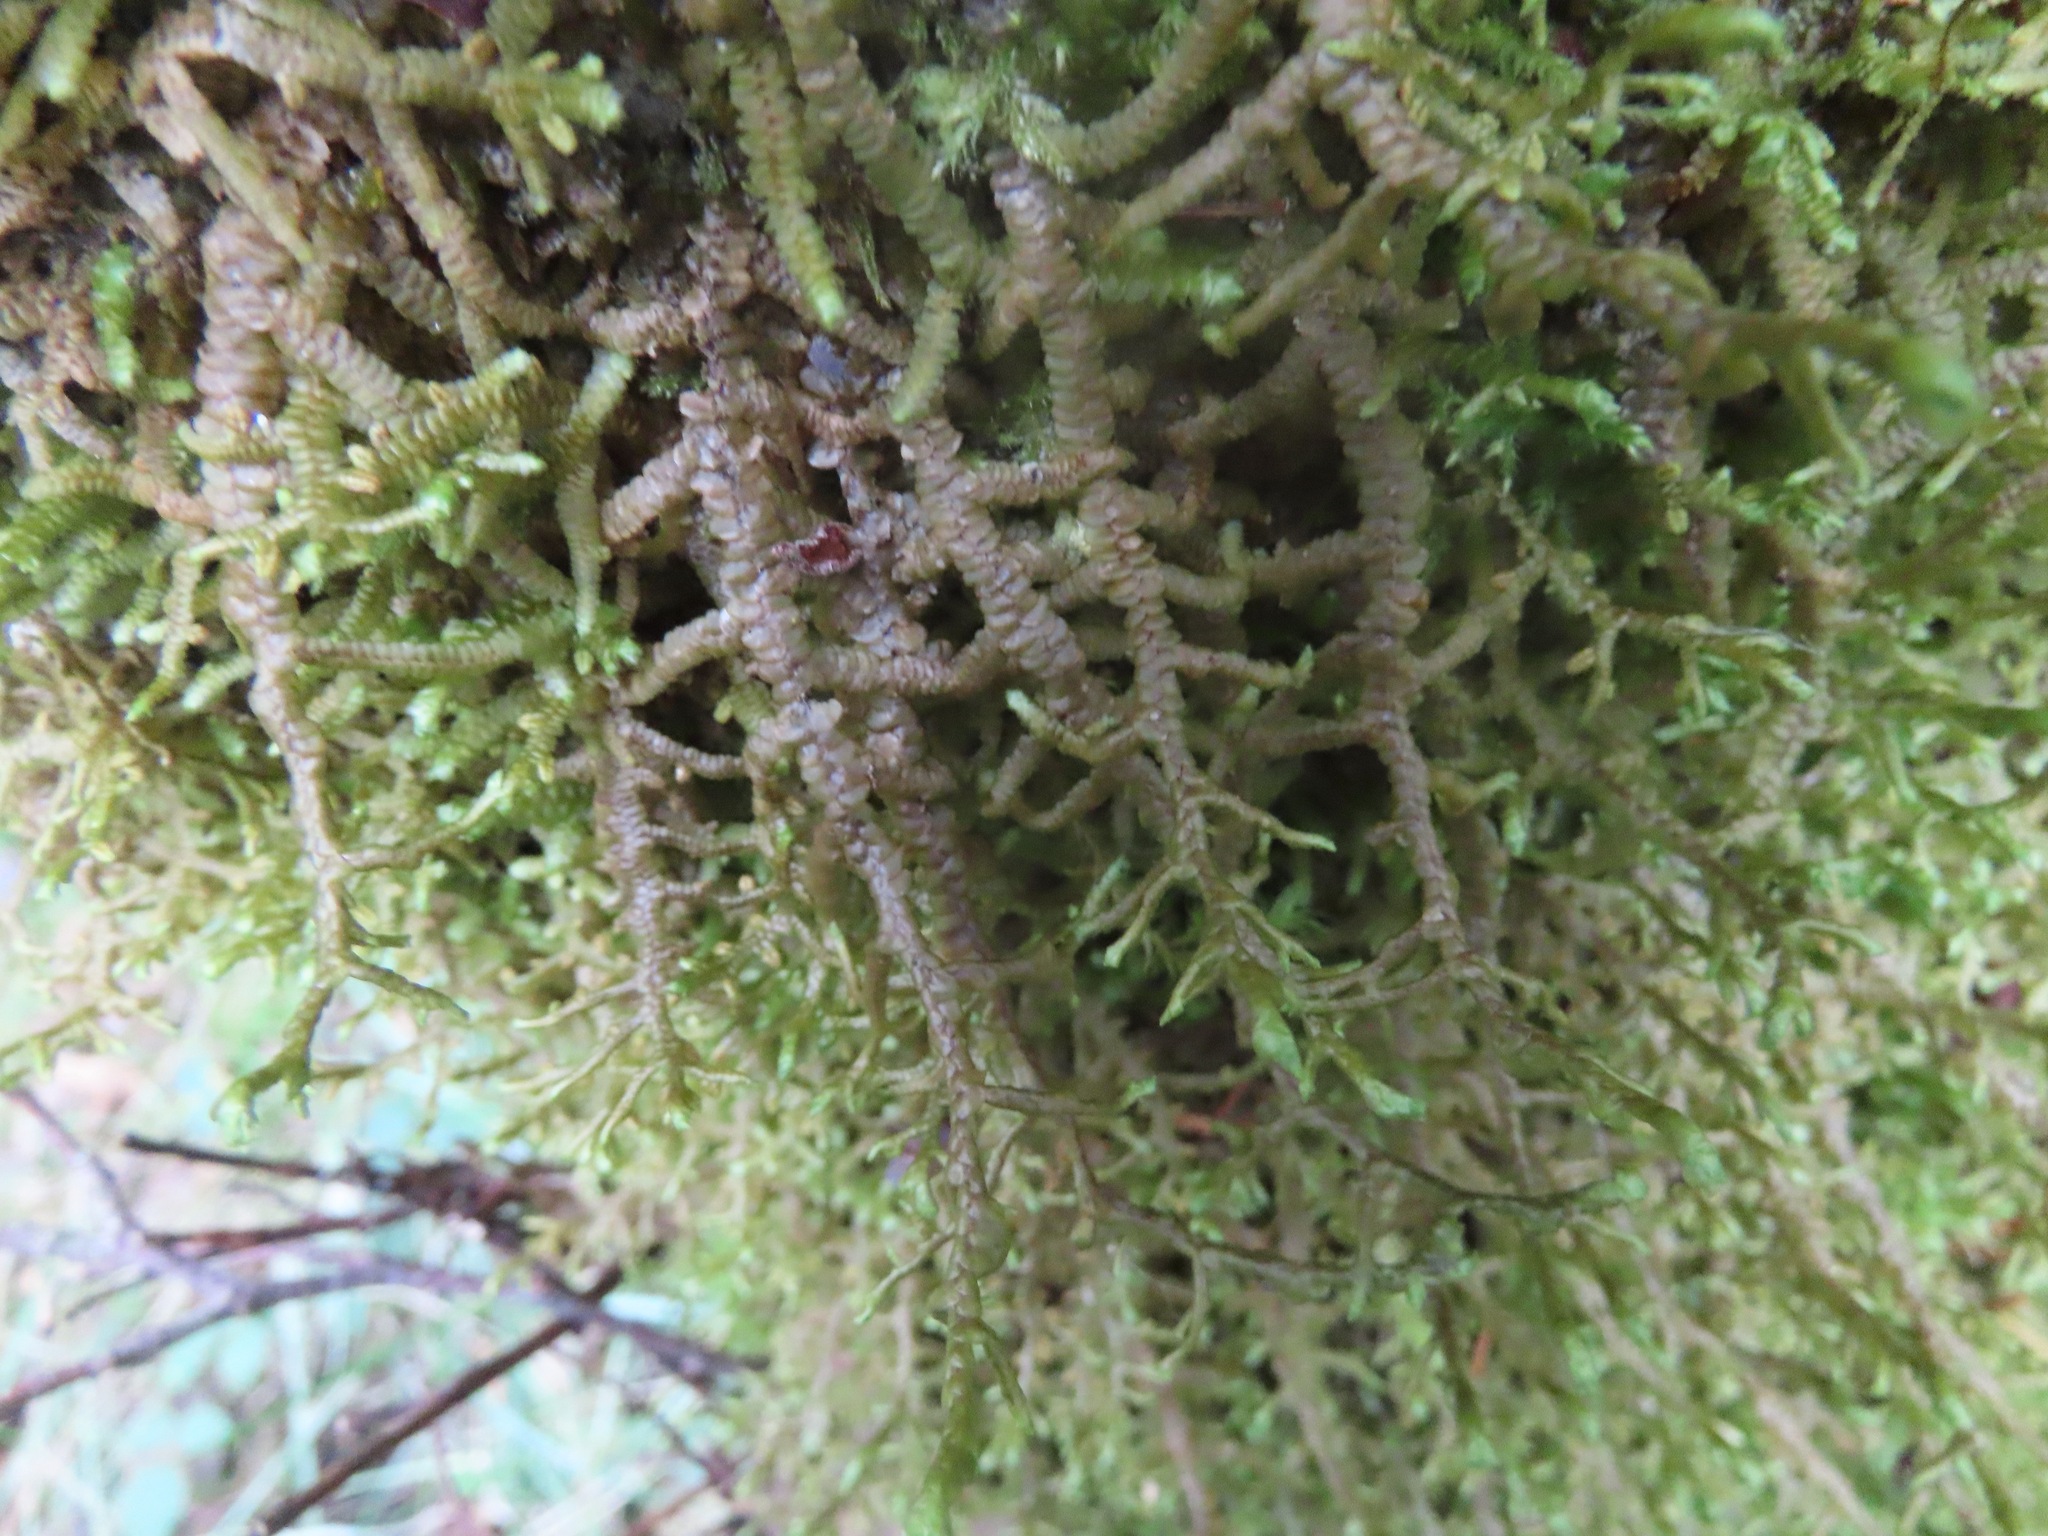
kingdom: Plantae
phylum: Marchantiophyta
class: Jungermanniopsida
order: Porellales
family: Porellaceae
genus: Porella
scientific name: Porella navicularis
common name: Tree ruffle liverwort
